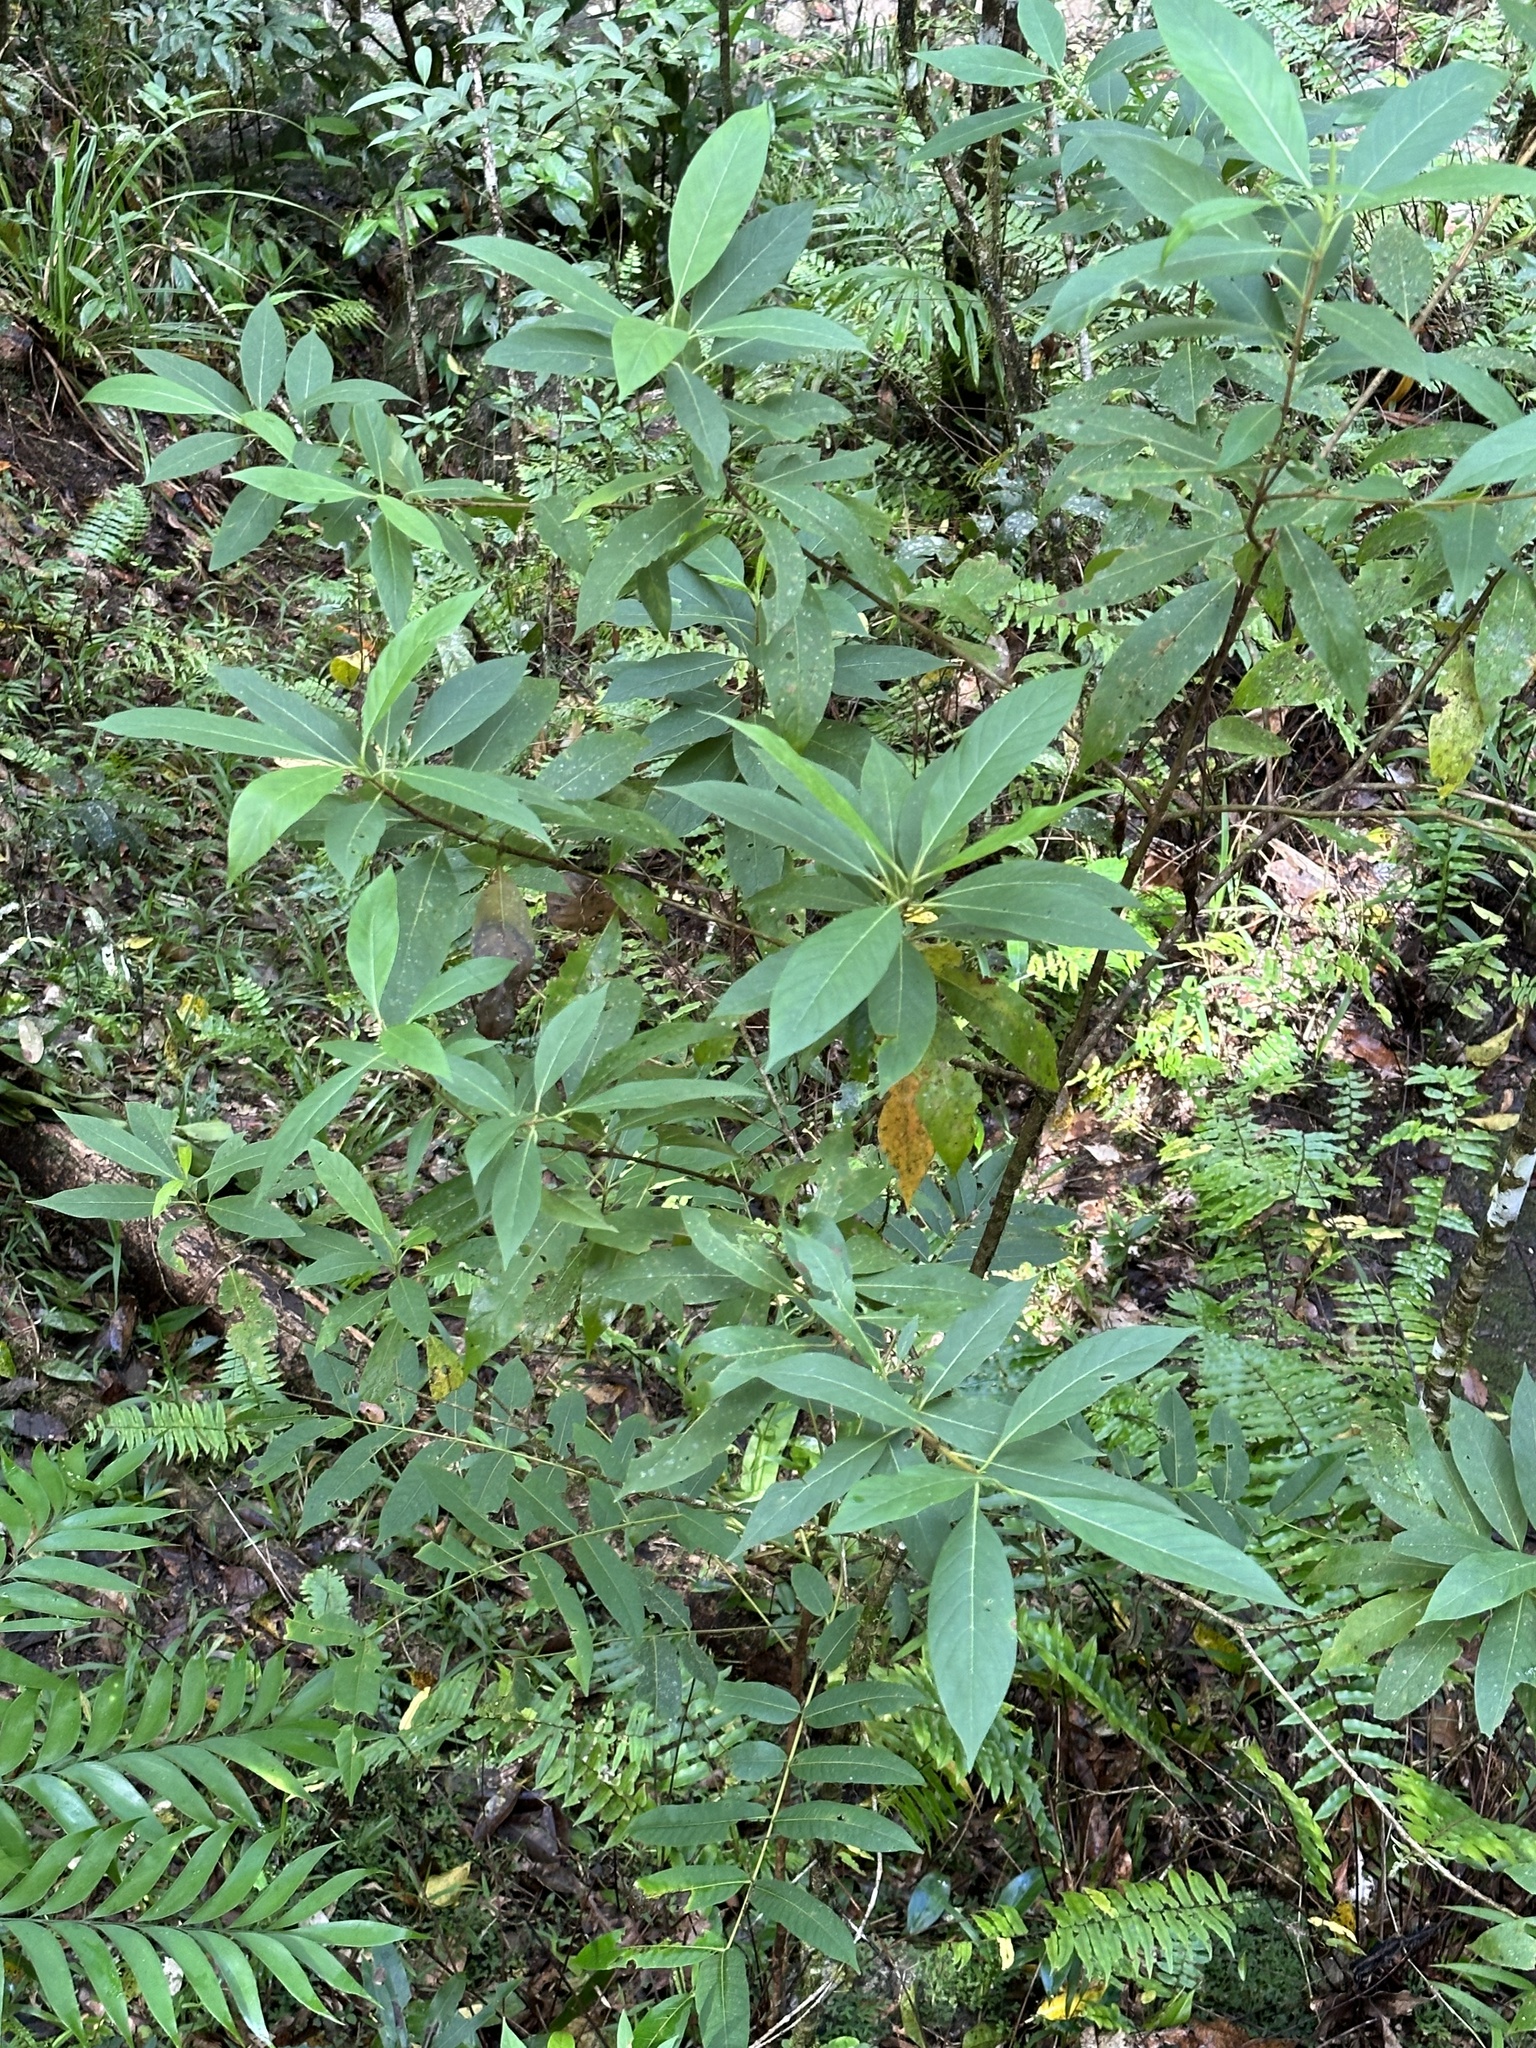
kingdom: Plantae
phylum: Tracheophyta
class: Magnoliopsida
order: Gentianales
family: Rubiaceae
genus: Timonius
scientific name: Timonius timon
